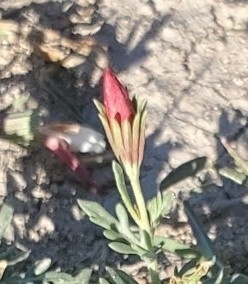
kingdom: Plantae
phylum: Tracheophyta
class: Magnoliopsida
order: Lamiales
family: Oleaceae
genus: Menodora
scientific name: Menodora heterophylla
